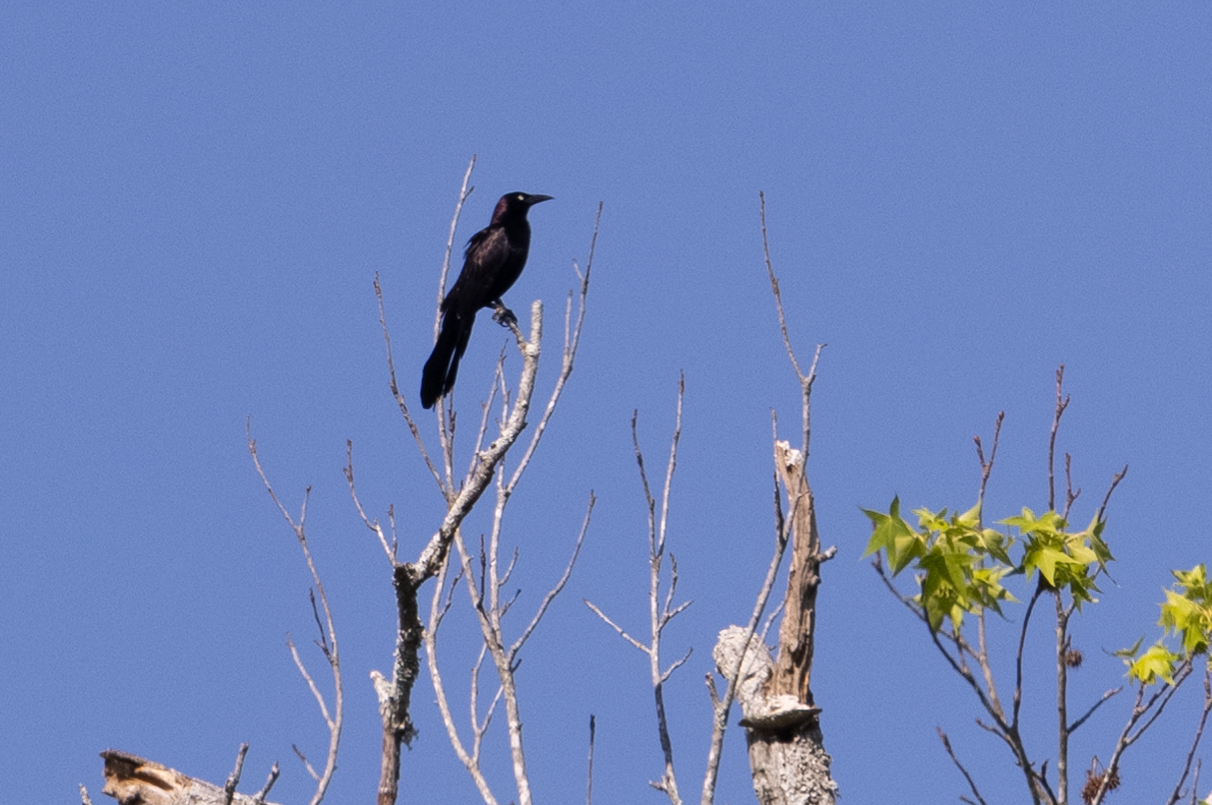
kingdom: Animalia
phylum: Chordata
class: Aves
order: Passeriformes
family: Icteridae
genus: Quiscalus
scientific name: Quiscalus quiscula
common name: Common grackle
